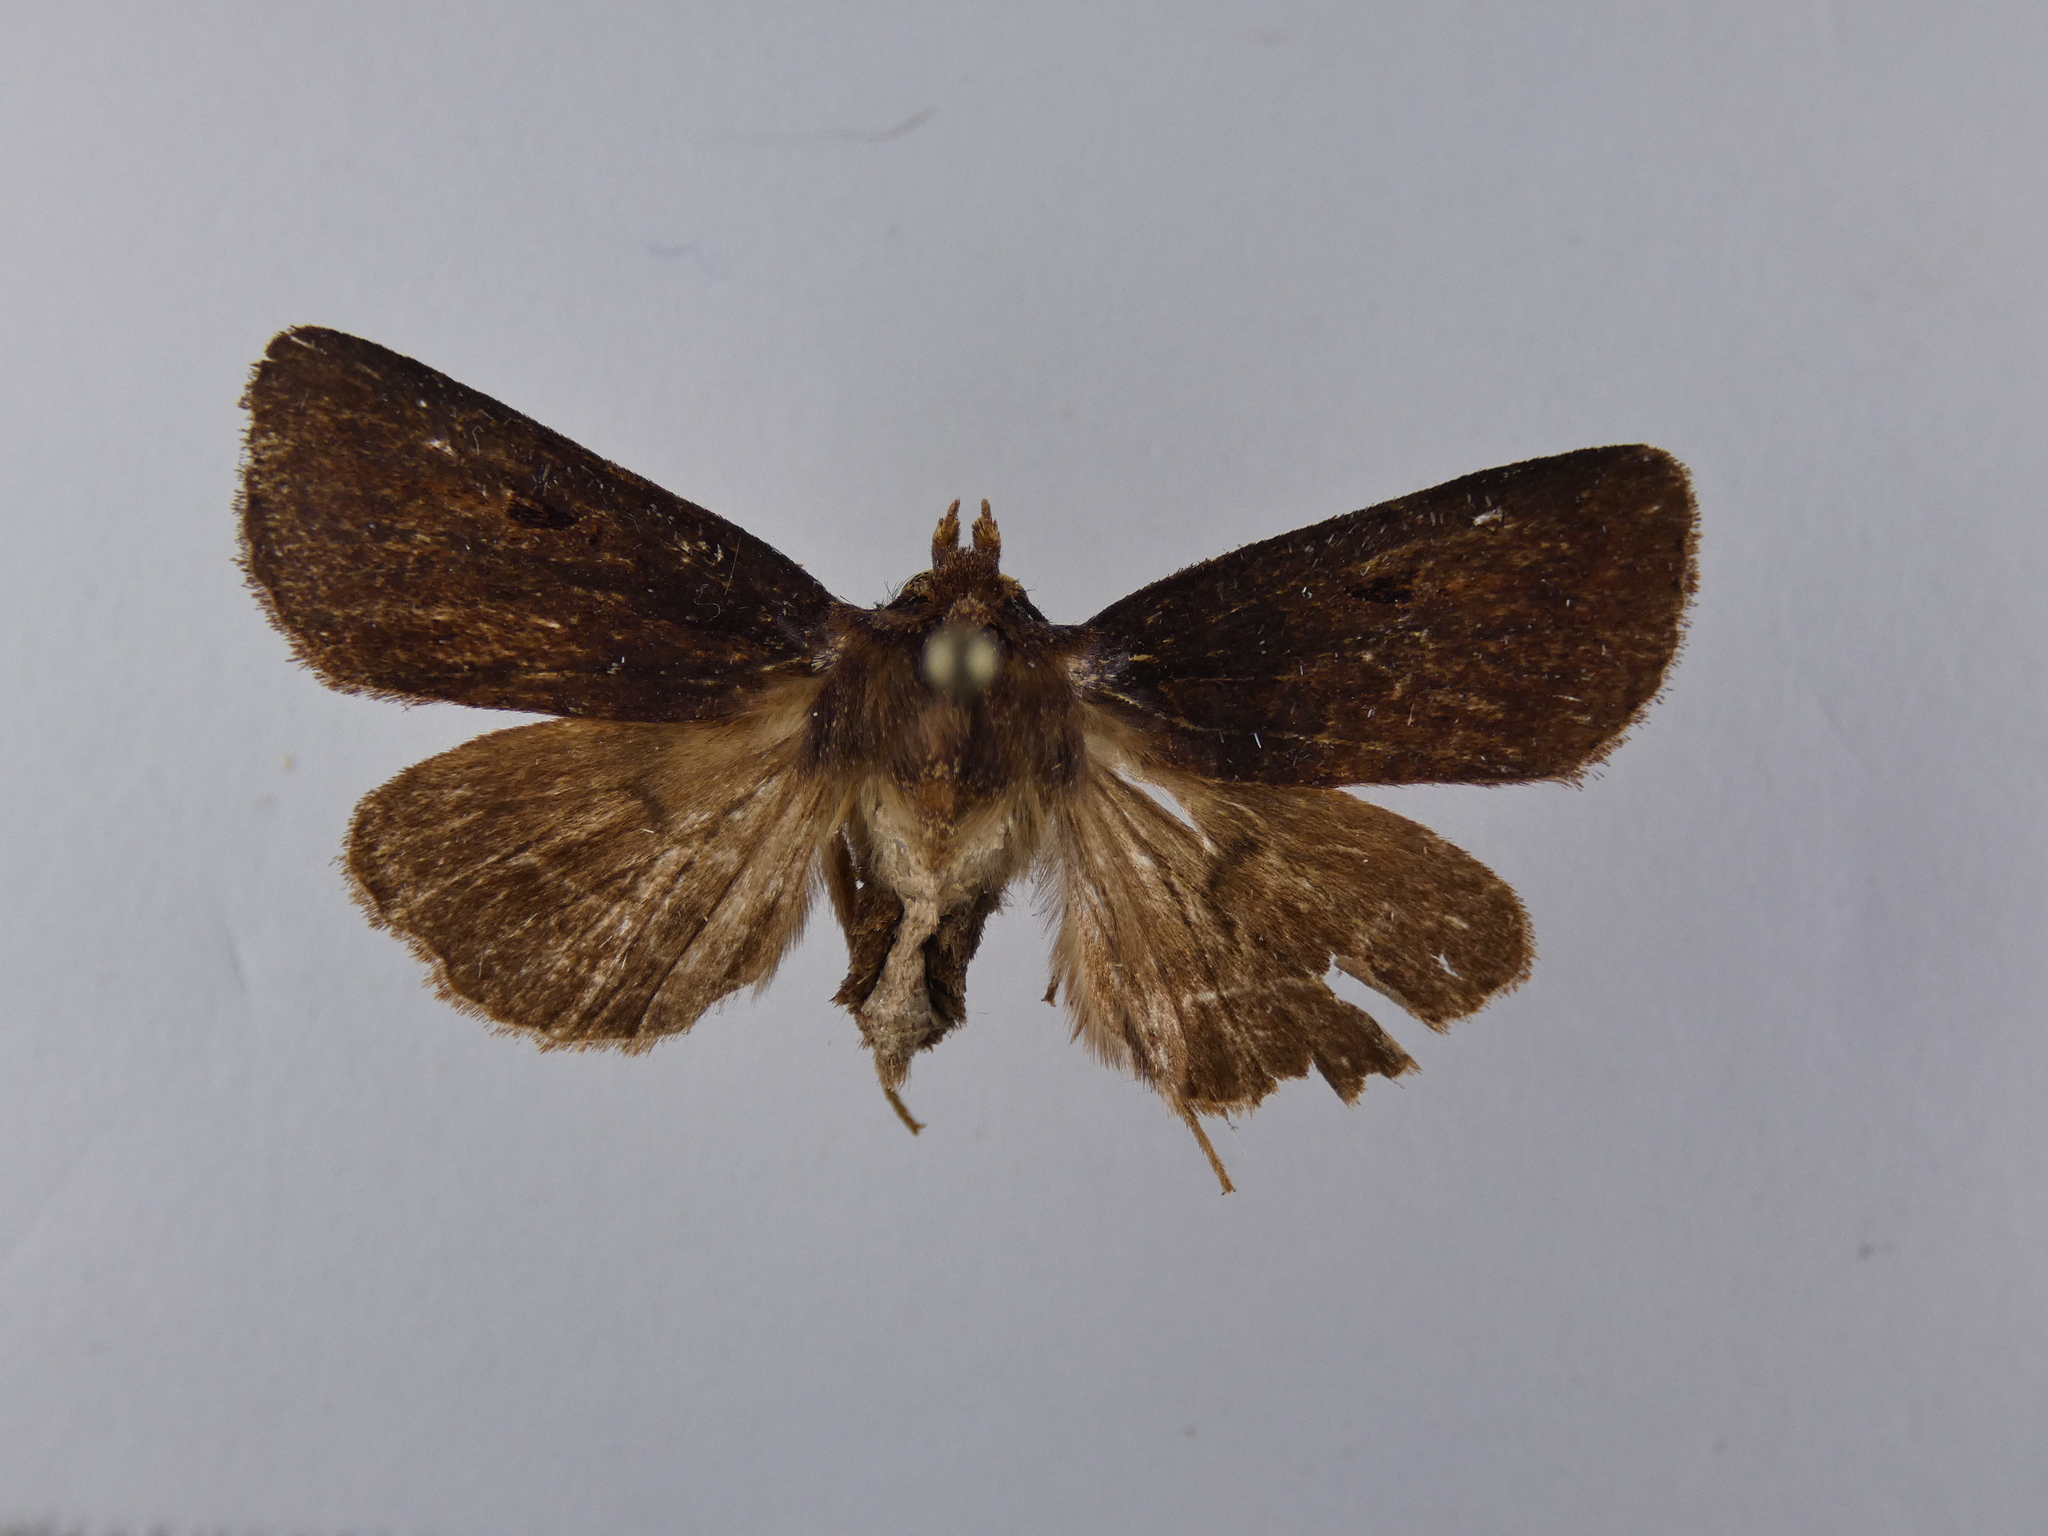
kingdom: Animalia
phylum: Arthropoda
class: Insecta
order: Lepidoptera
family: Noctuidae
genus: Austramathes
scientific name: Austramathes purpurea
